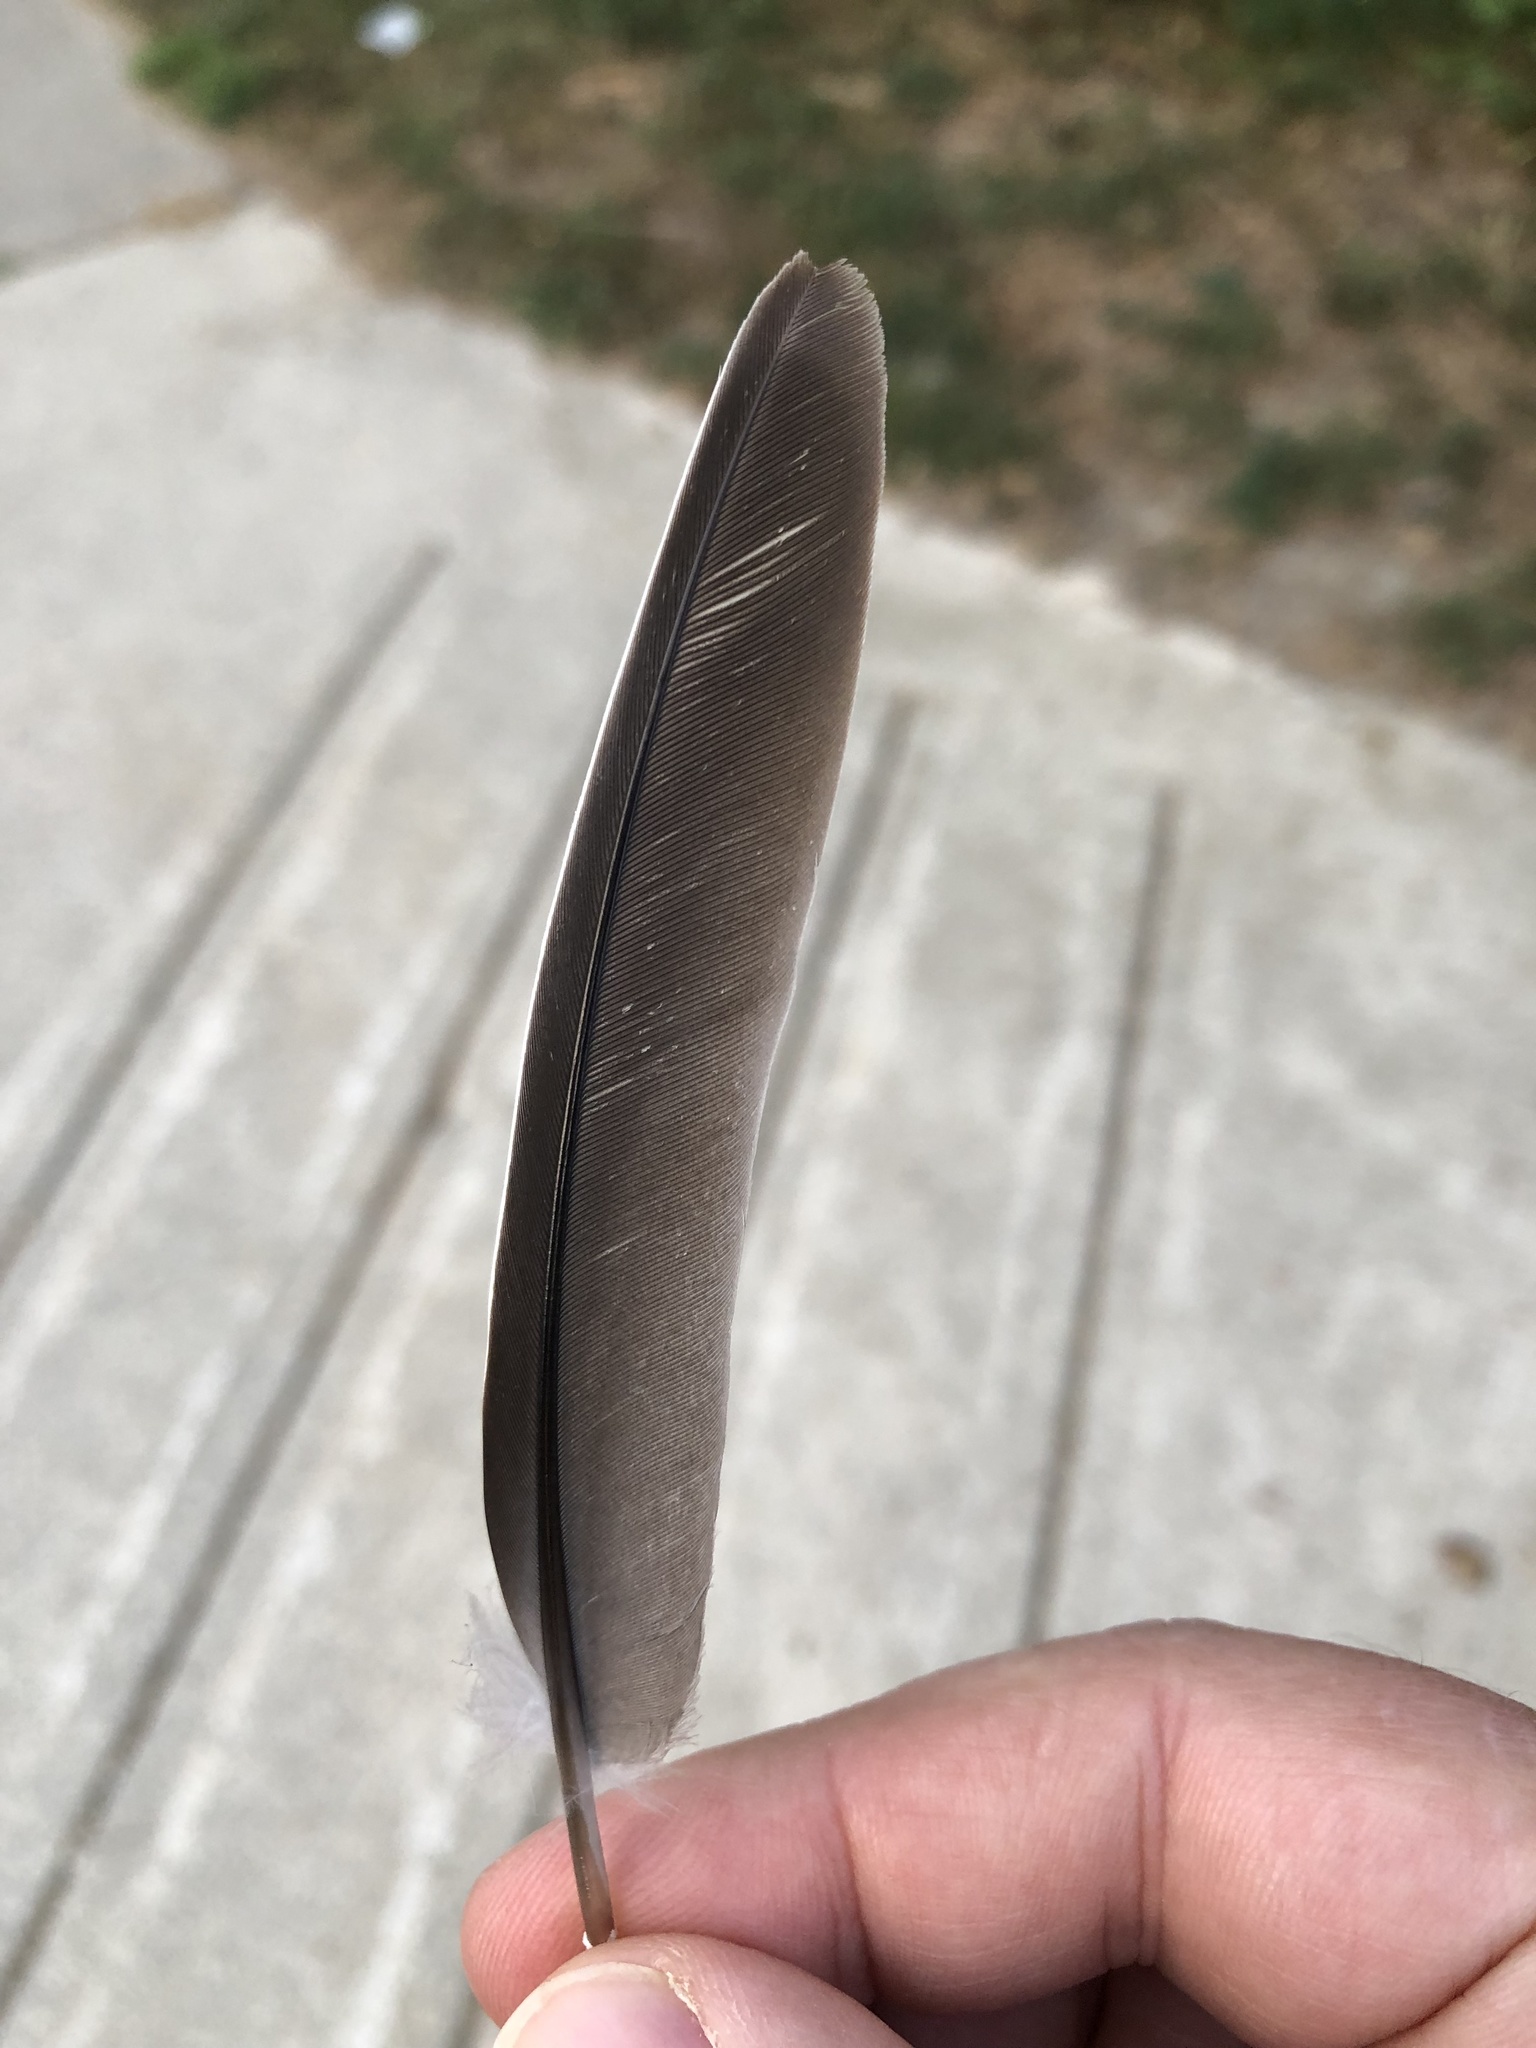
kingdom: Animalia
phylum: Chordata
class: Aves
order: Columbiformes
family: Columbidae
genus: Zenaida
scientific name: Zenaida macroura
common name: Mourning dove
